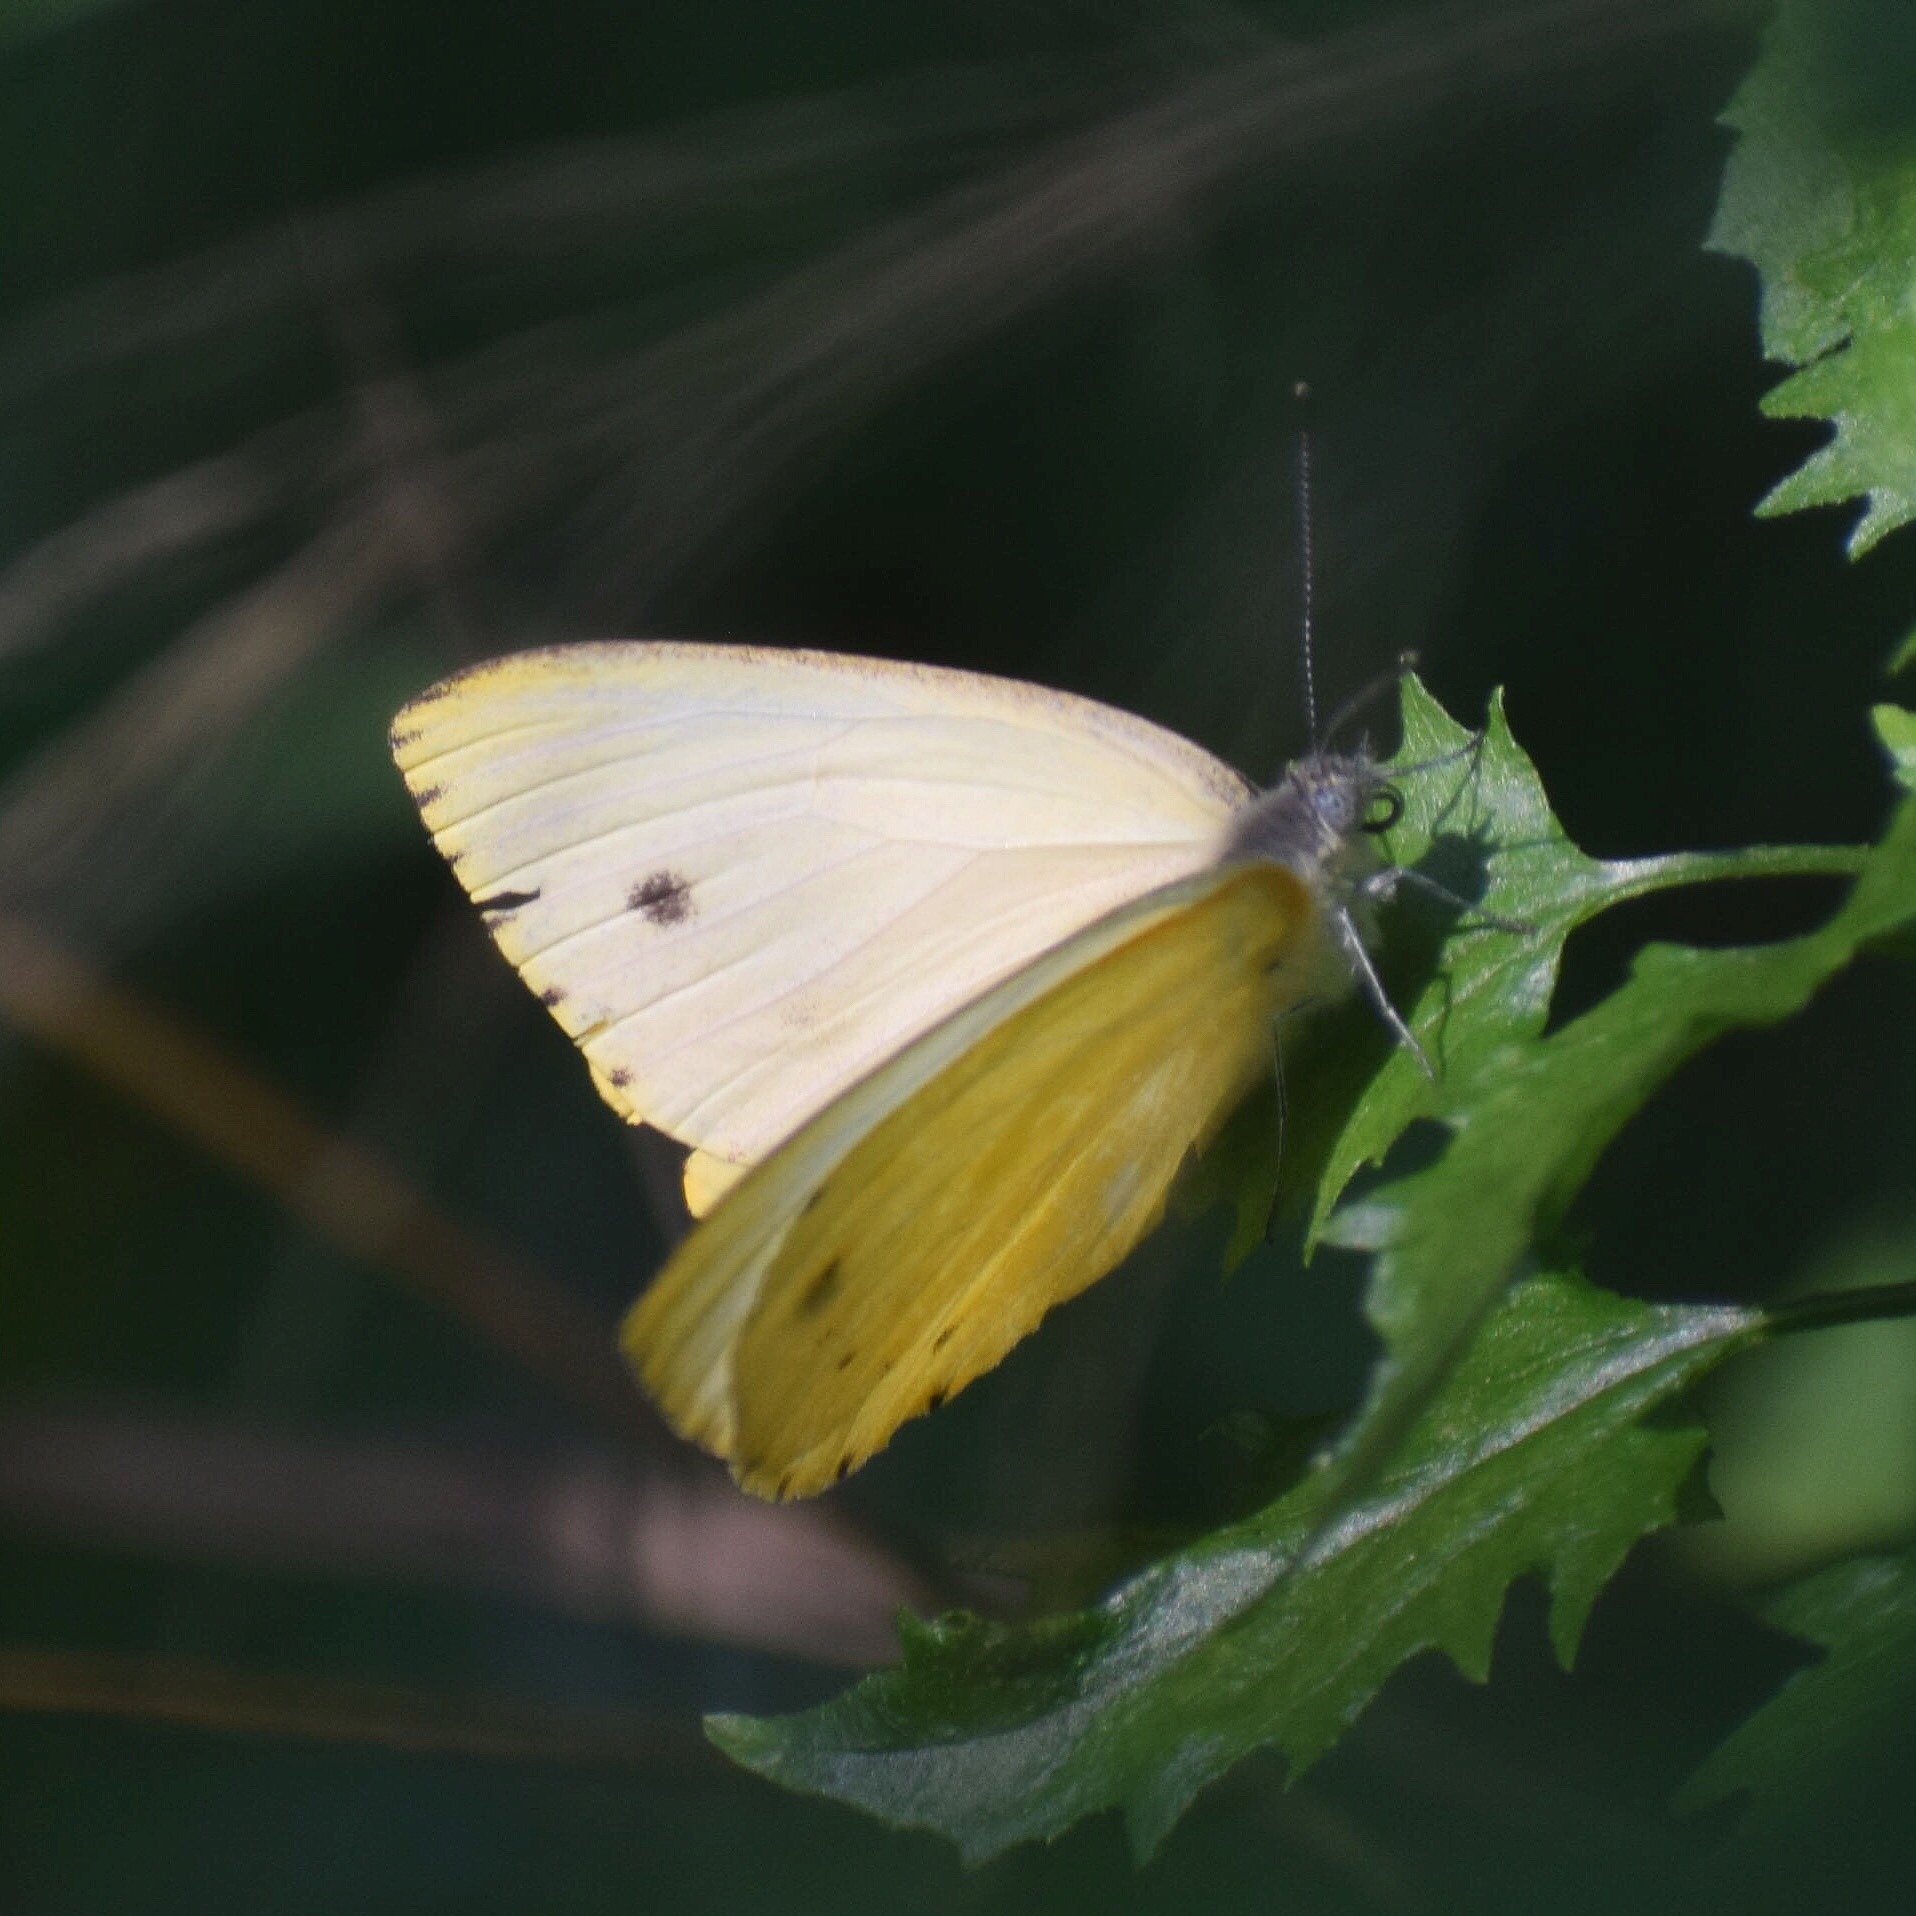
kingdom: Animalia
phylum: Arthropoda
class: Insecta
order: Lepidoptera
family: Pieridae
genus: Dixeia
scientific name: Dixeia pigea
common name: Ant-heap small white
